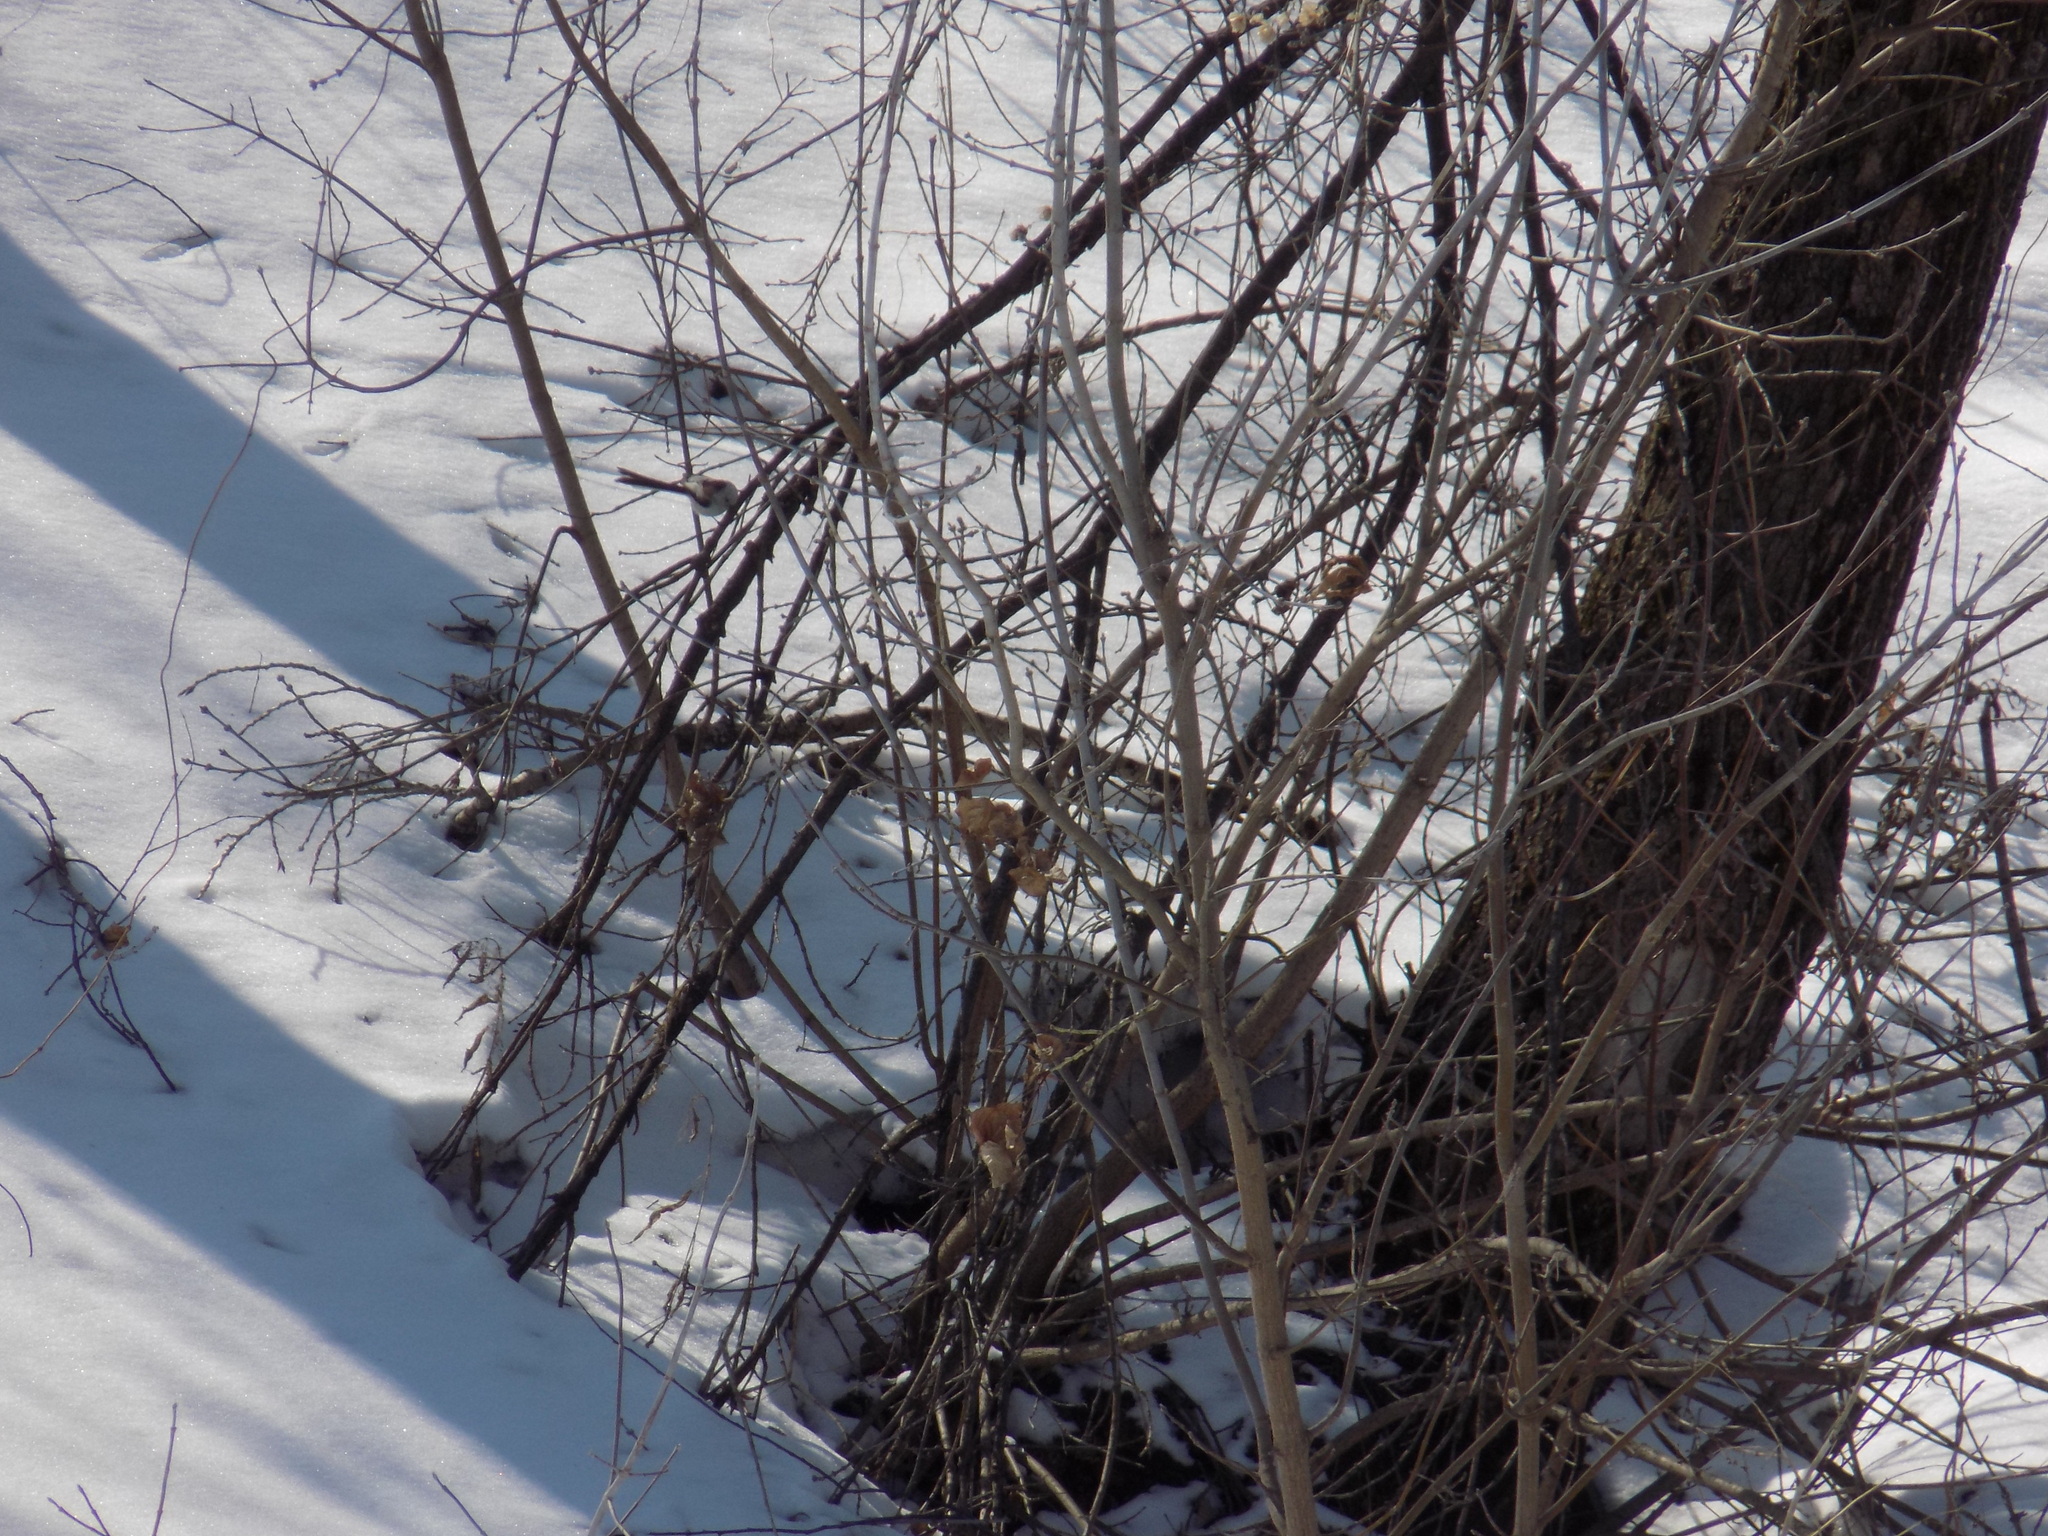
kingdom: Animalia
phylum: Chordata
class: Aves
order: Passeriformes
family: Aegithalidae
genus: Aegithalos
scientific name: Aegithalos caudatus
